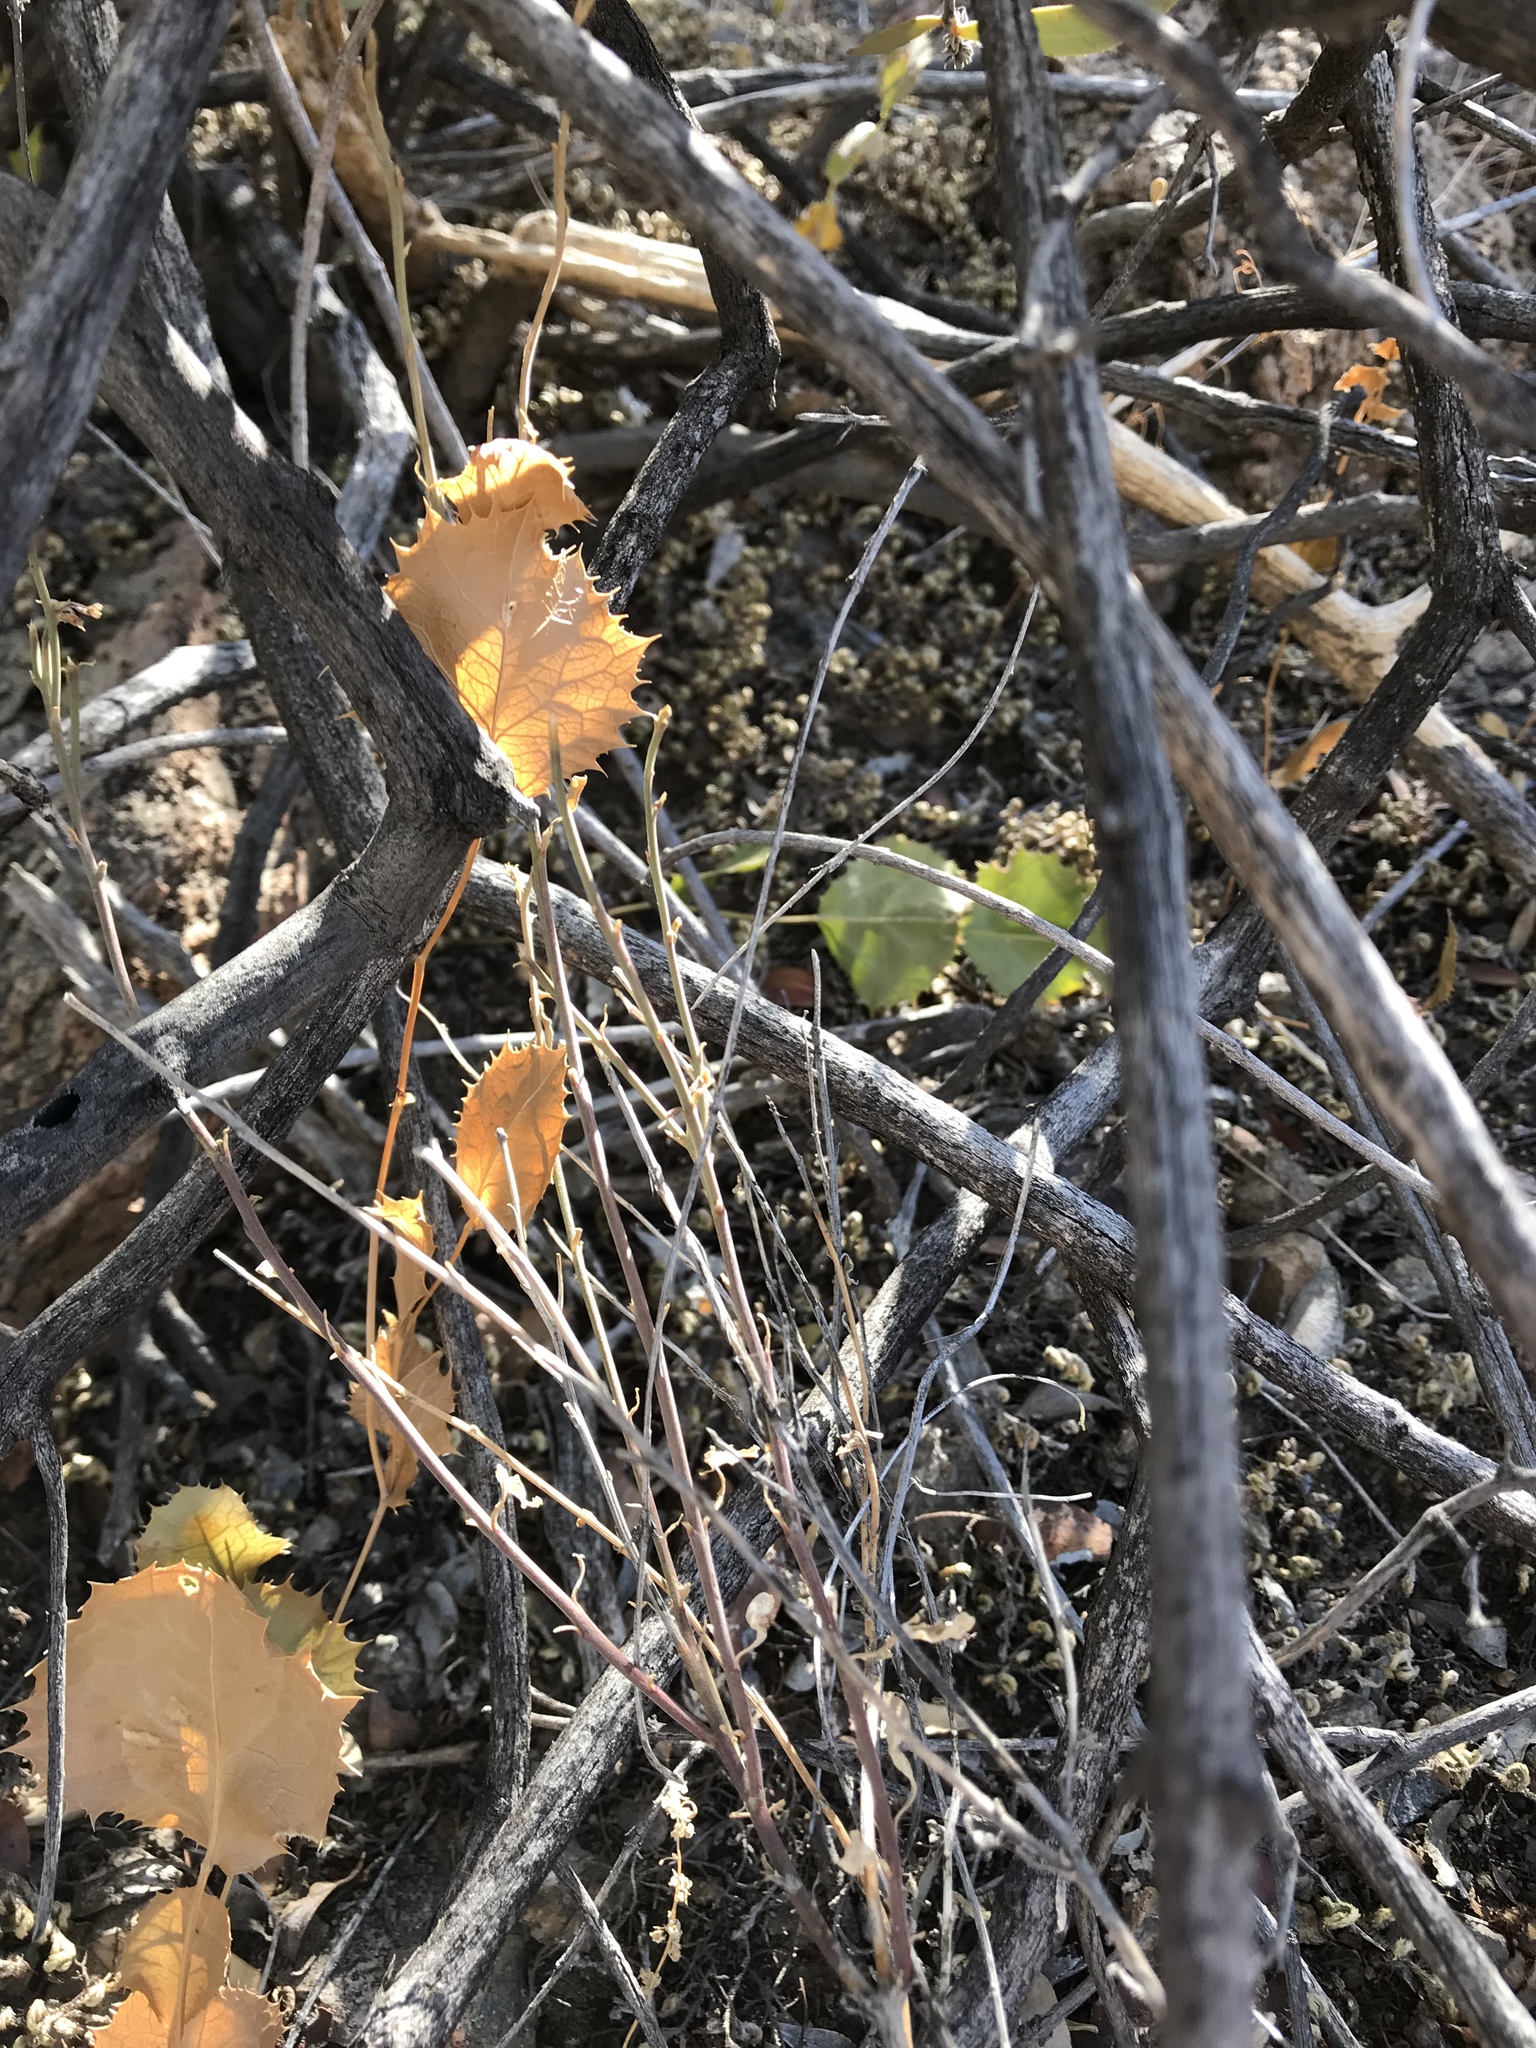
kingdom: Plantae
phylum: Tracheophyta
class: Magnoliopsida
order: Asterales
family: Asteraceae
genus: Acourtia
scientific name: Acourtia nana
